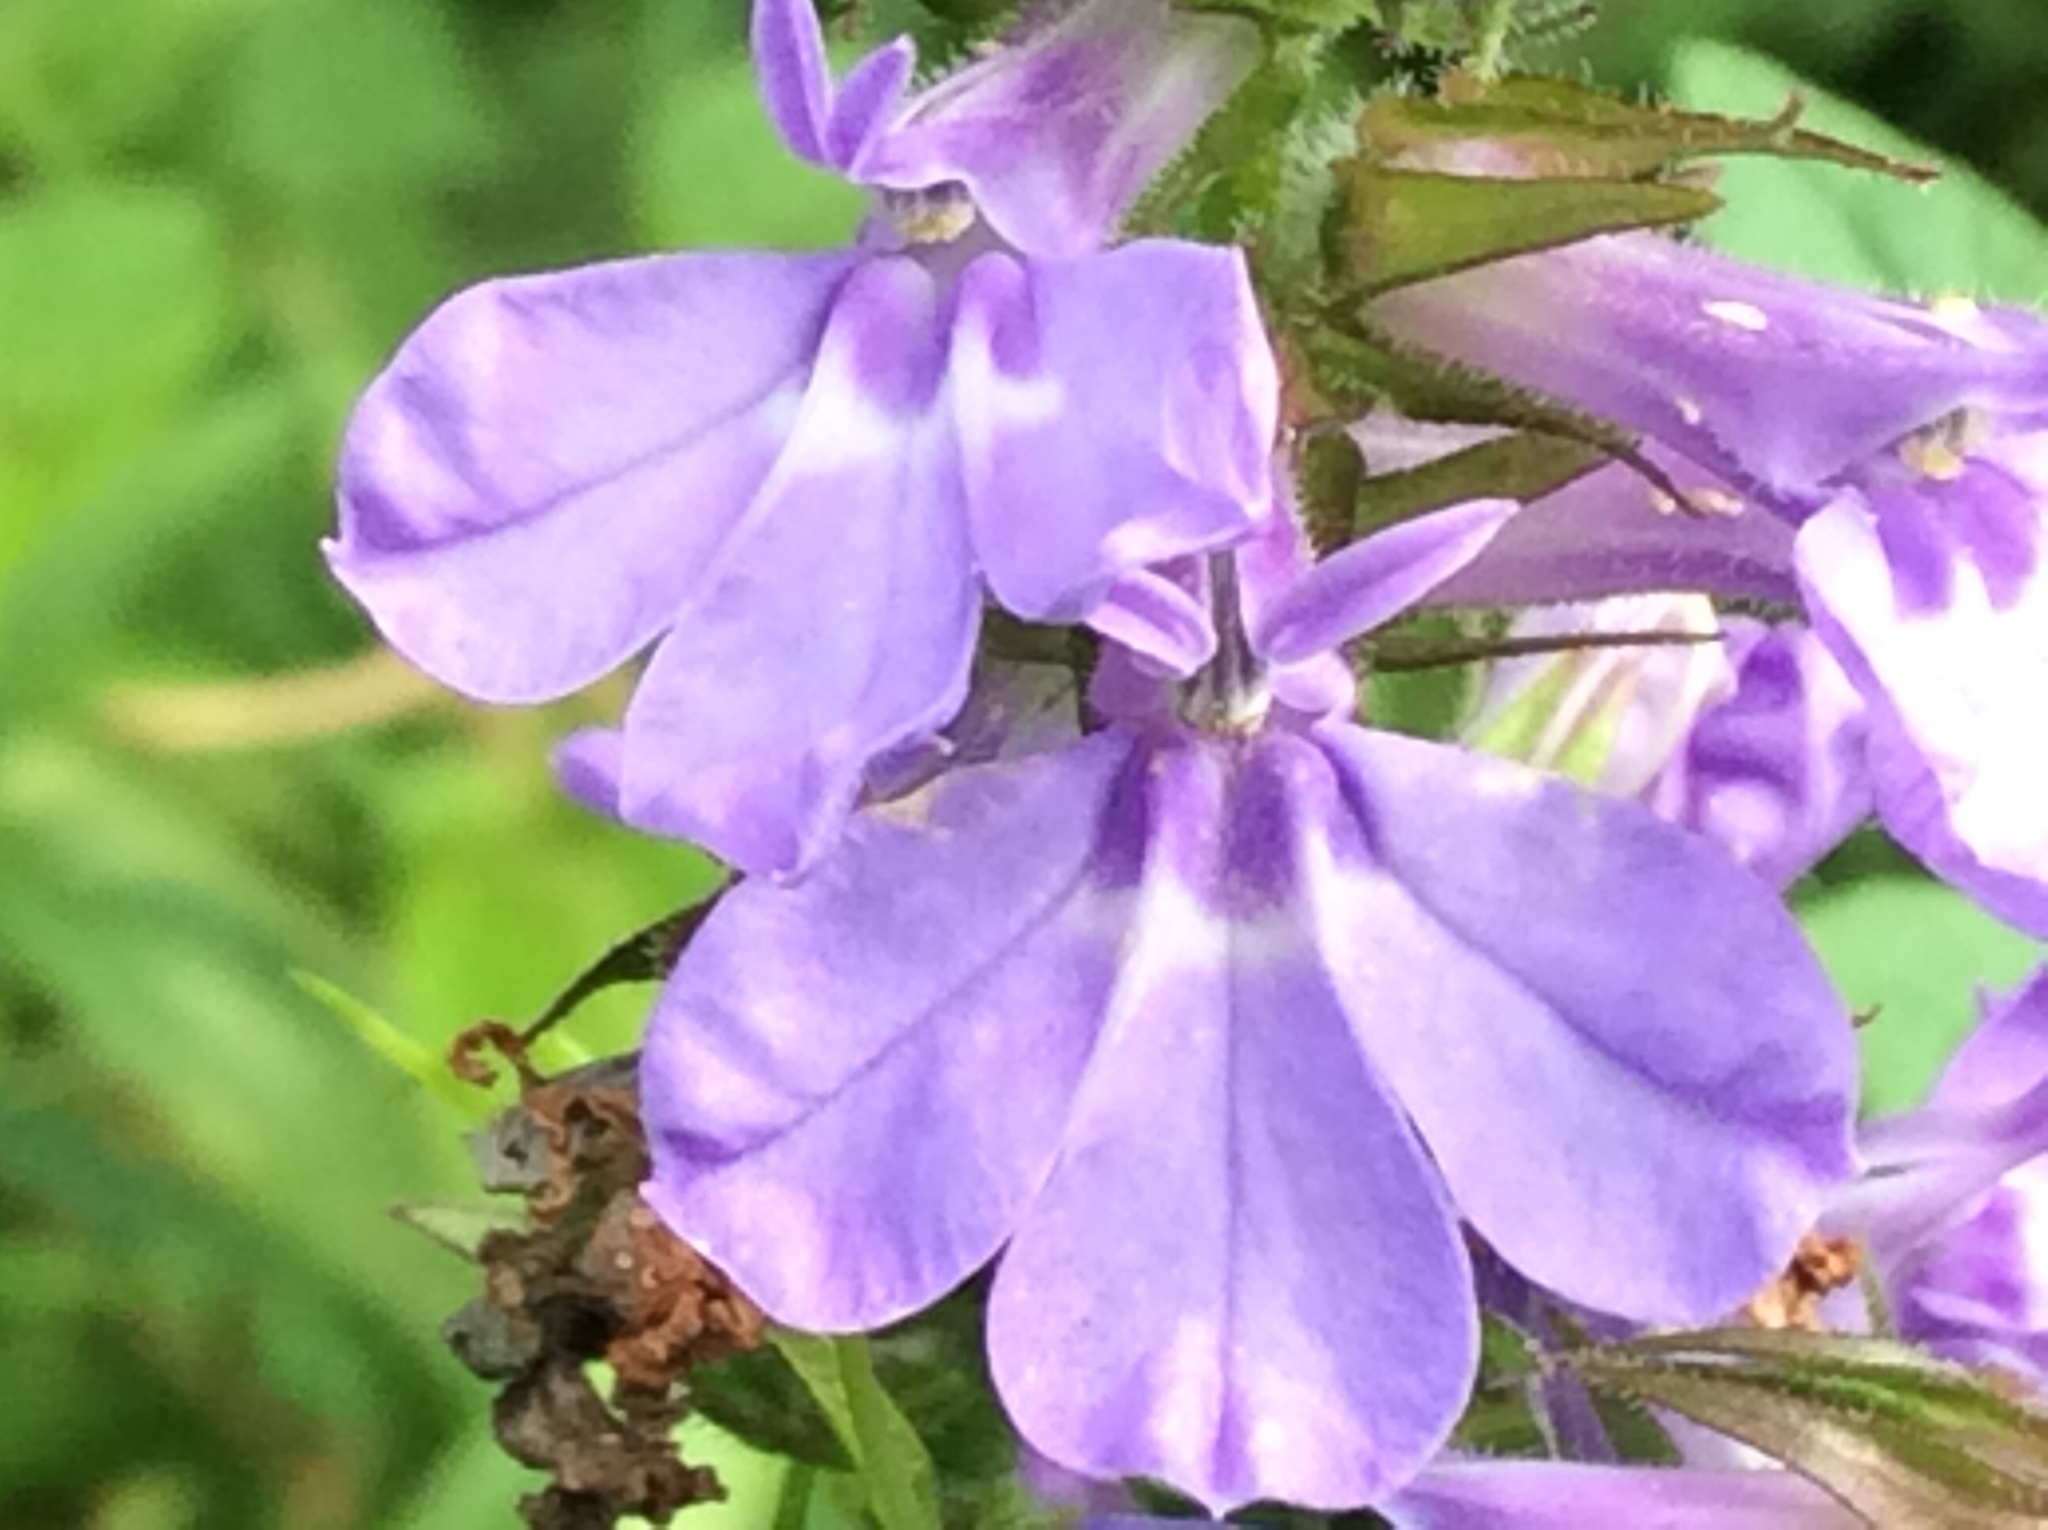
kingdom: Plantae
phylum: Tracheophyta
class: Magnoliopsida
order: Asterales
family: Campanulaceae
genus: Lobelia
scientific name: Lobelia puberula
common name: Purple dewdrop
